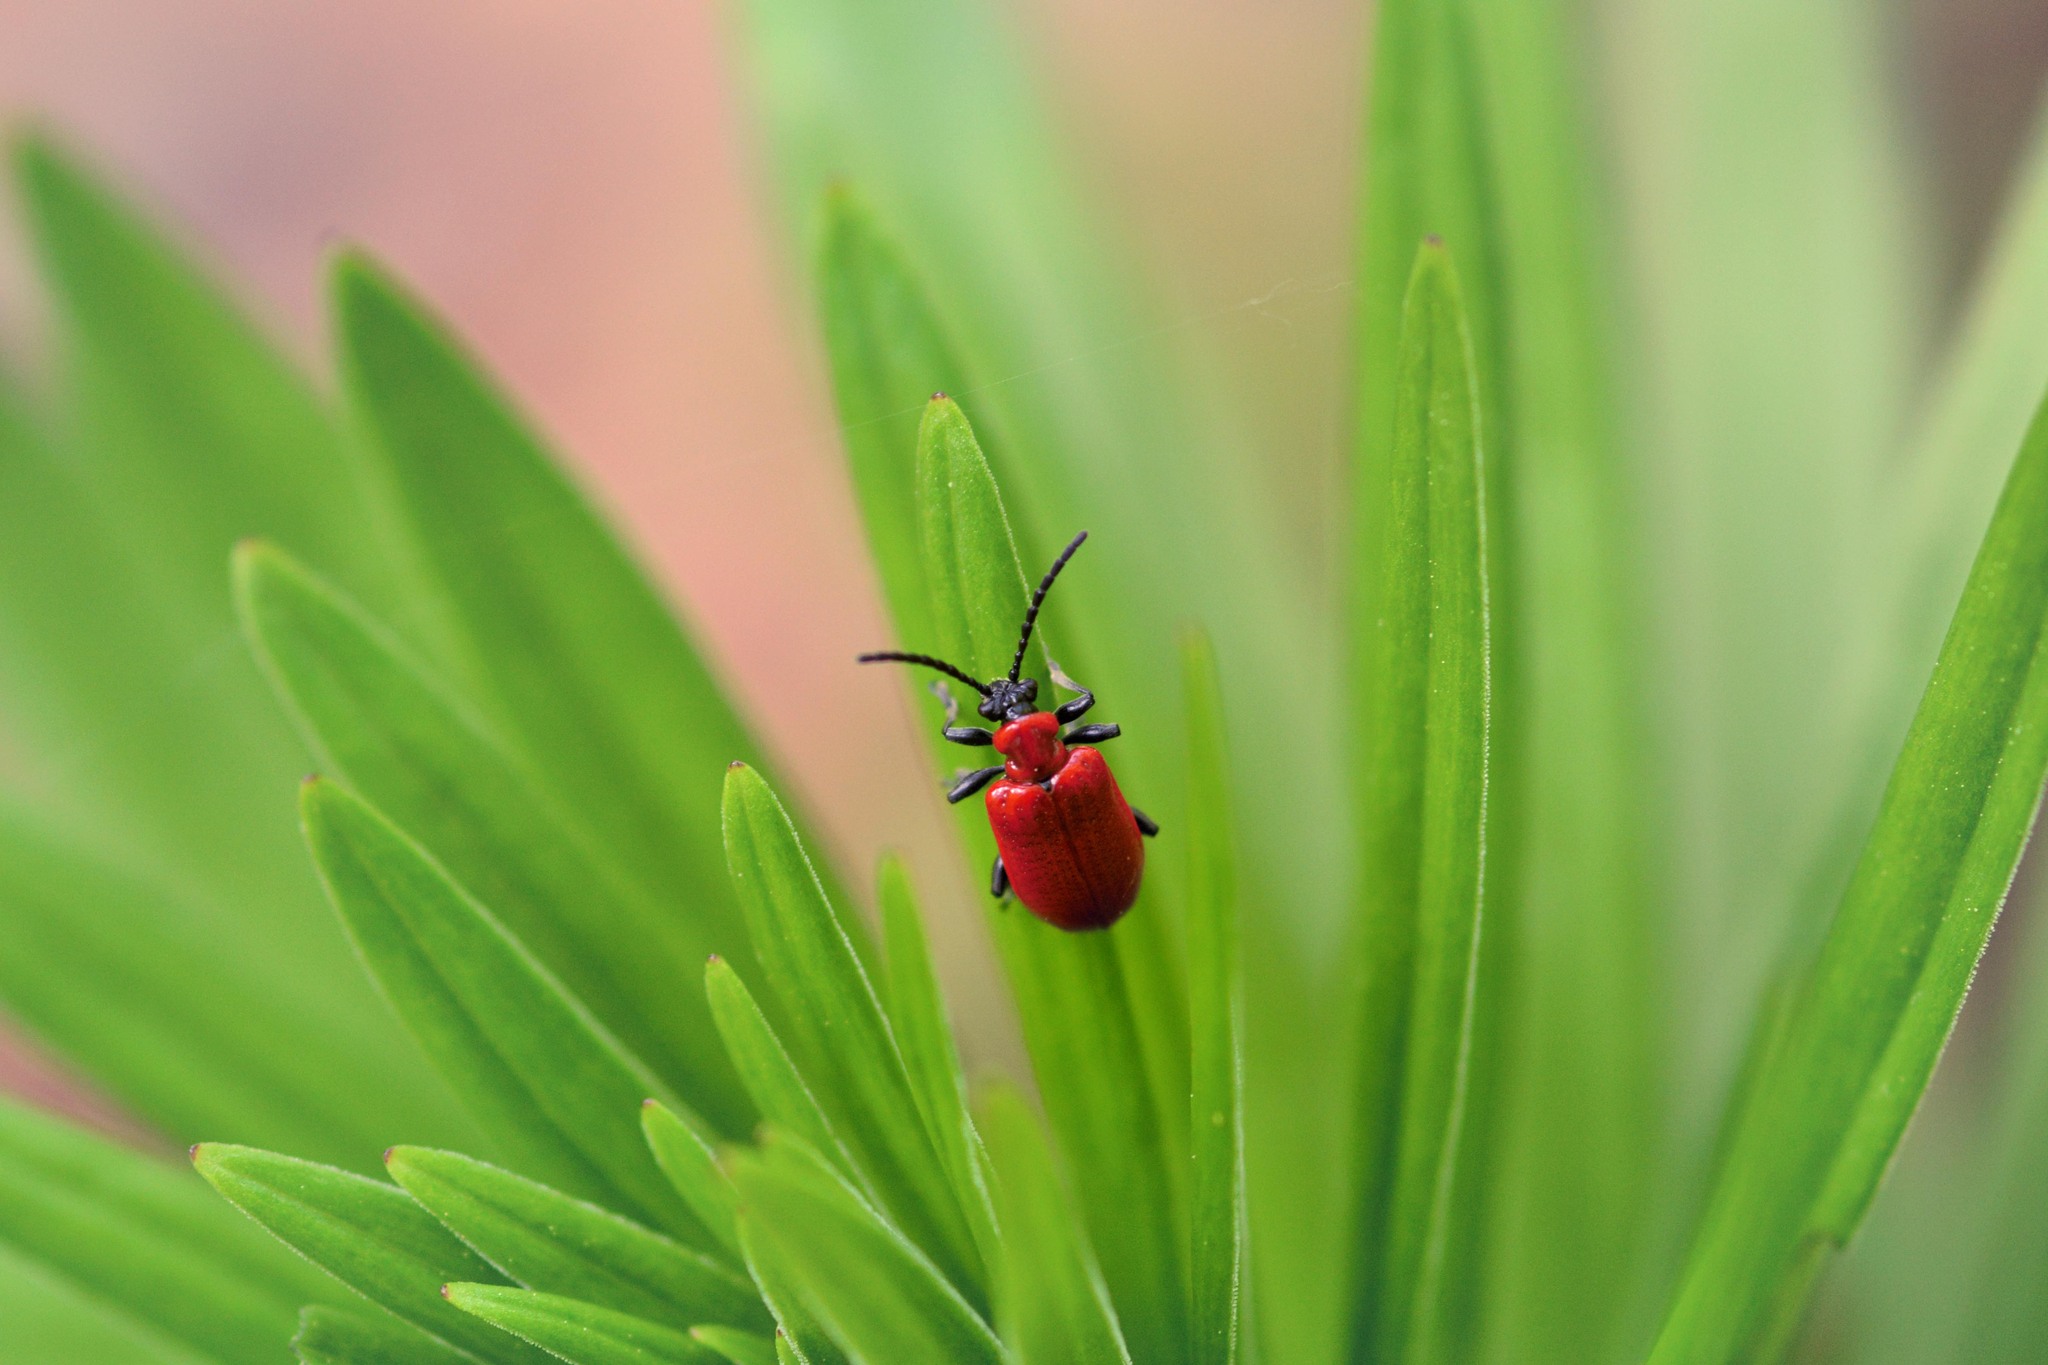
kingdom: Animalia
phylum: Arthropoda
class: Insecta
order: Coleoptera
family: Chrysomelidae
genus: Lilioceris
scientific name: Lilioceris lilii
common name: Lily beetle
